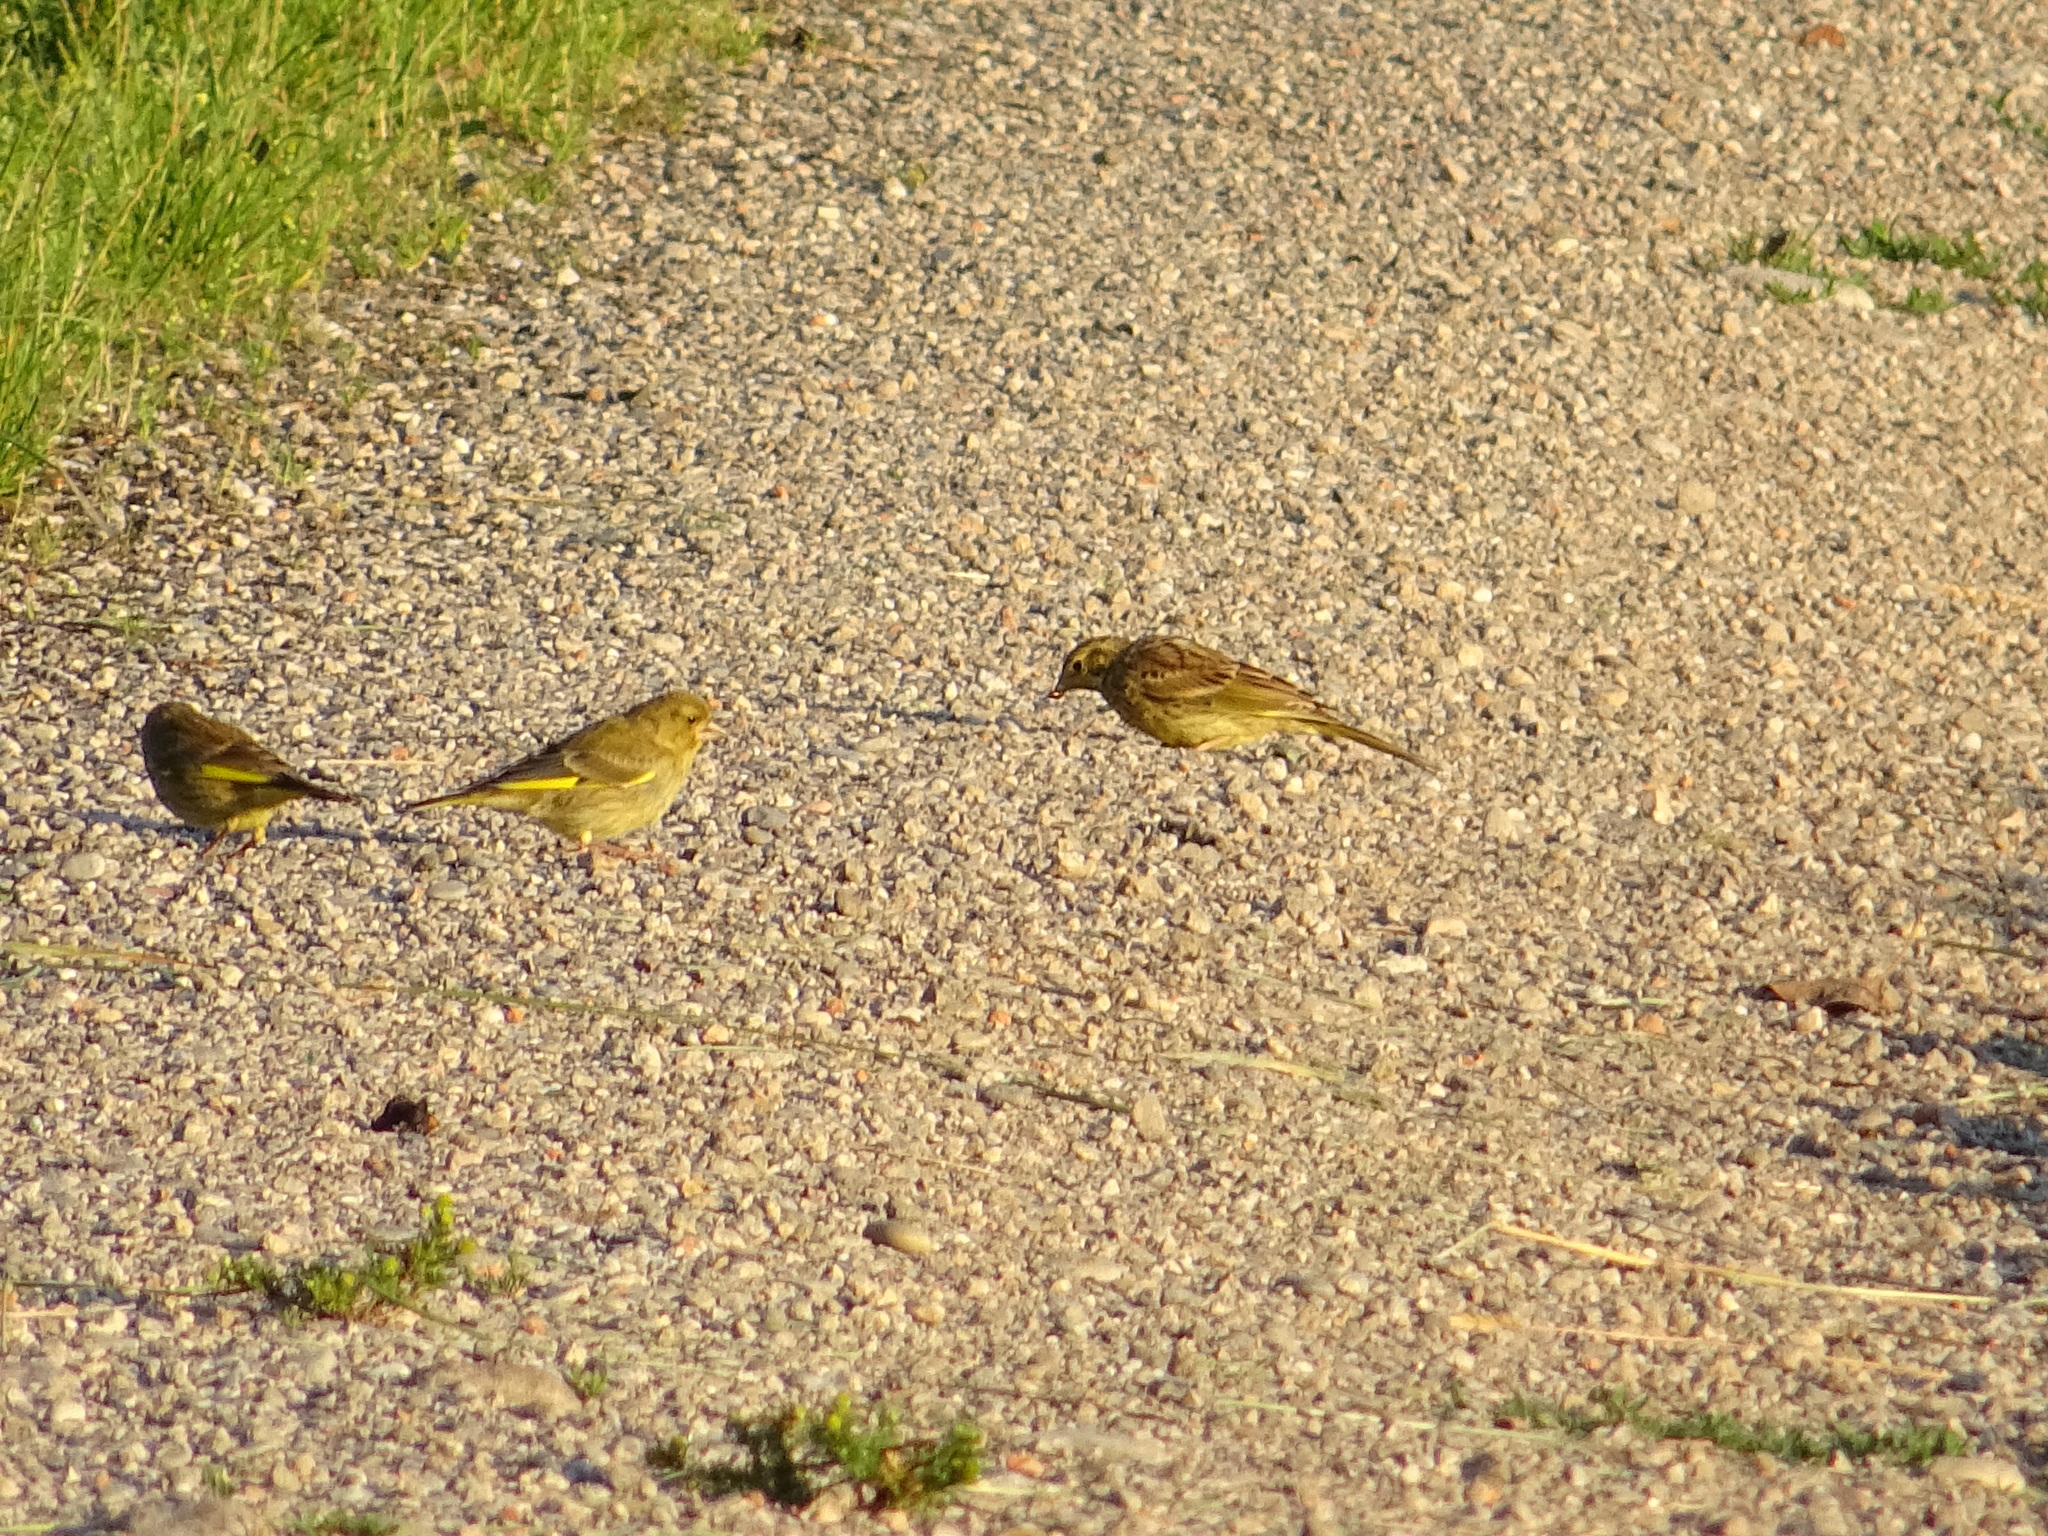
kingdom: Animalia
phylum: Chordata
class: Aves
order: Passeriformes
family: Emberizidae
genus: Emberiza
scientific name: Emberiza citrinella
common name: Yellowhammer
